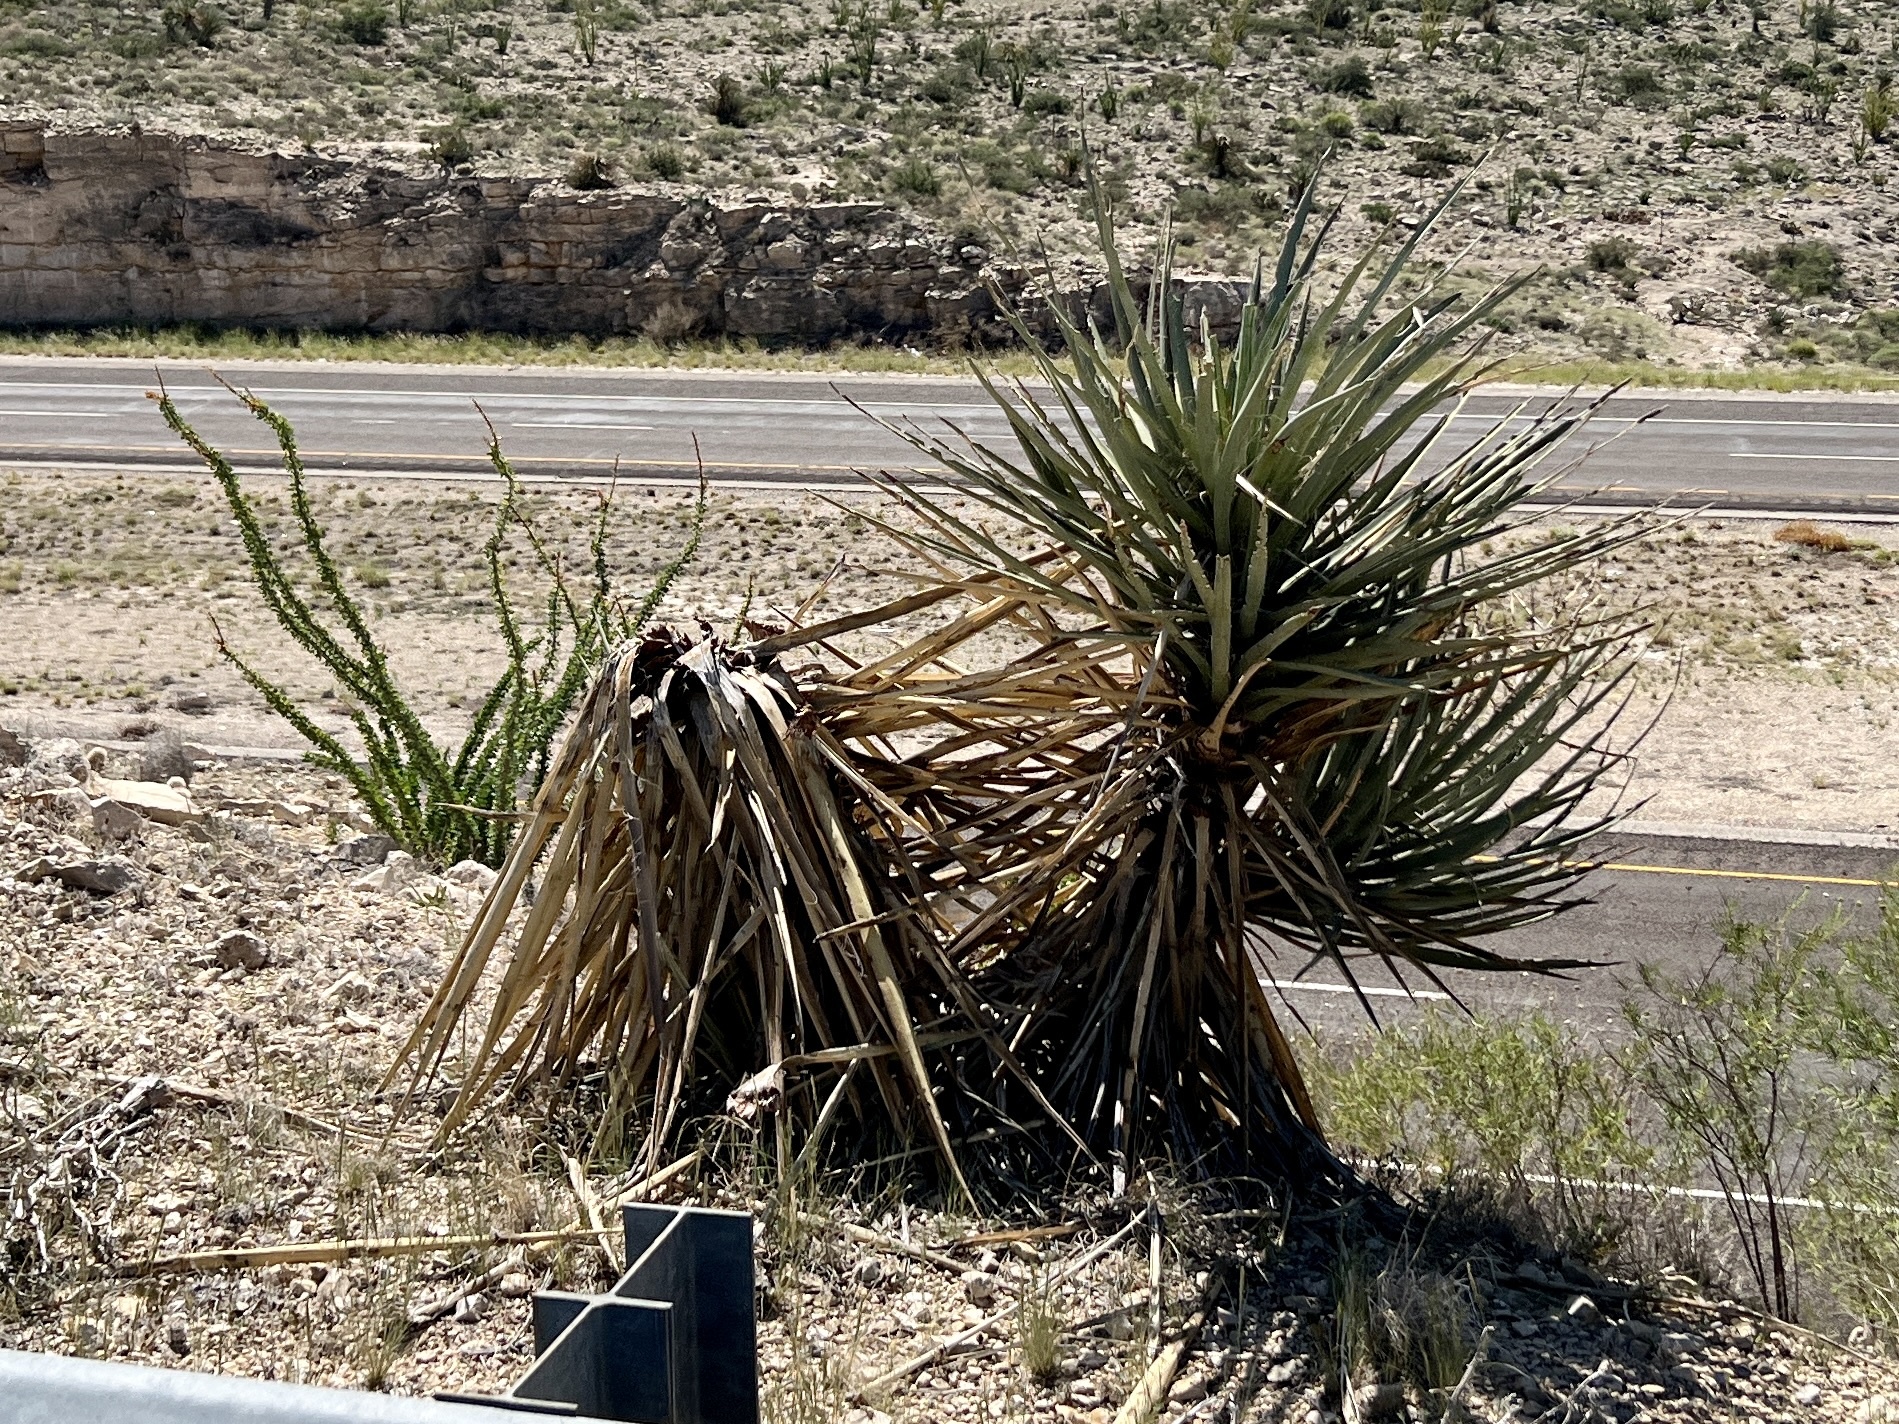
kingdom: Plantae
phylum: Tracheophyta
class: Liliopsida
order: Asparagales
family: Asparagaceae
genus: Yucca
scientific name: Yucca treculiana
